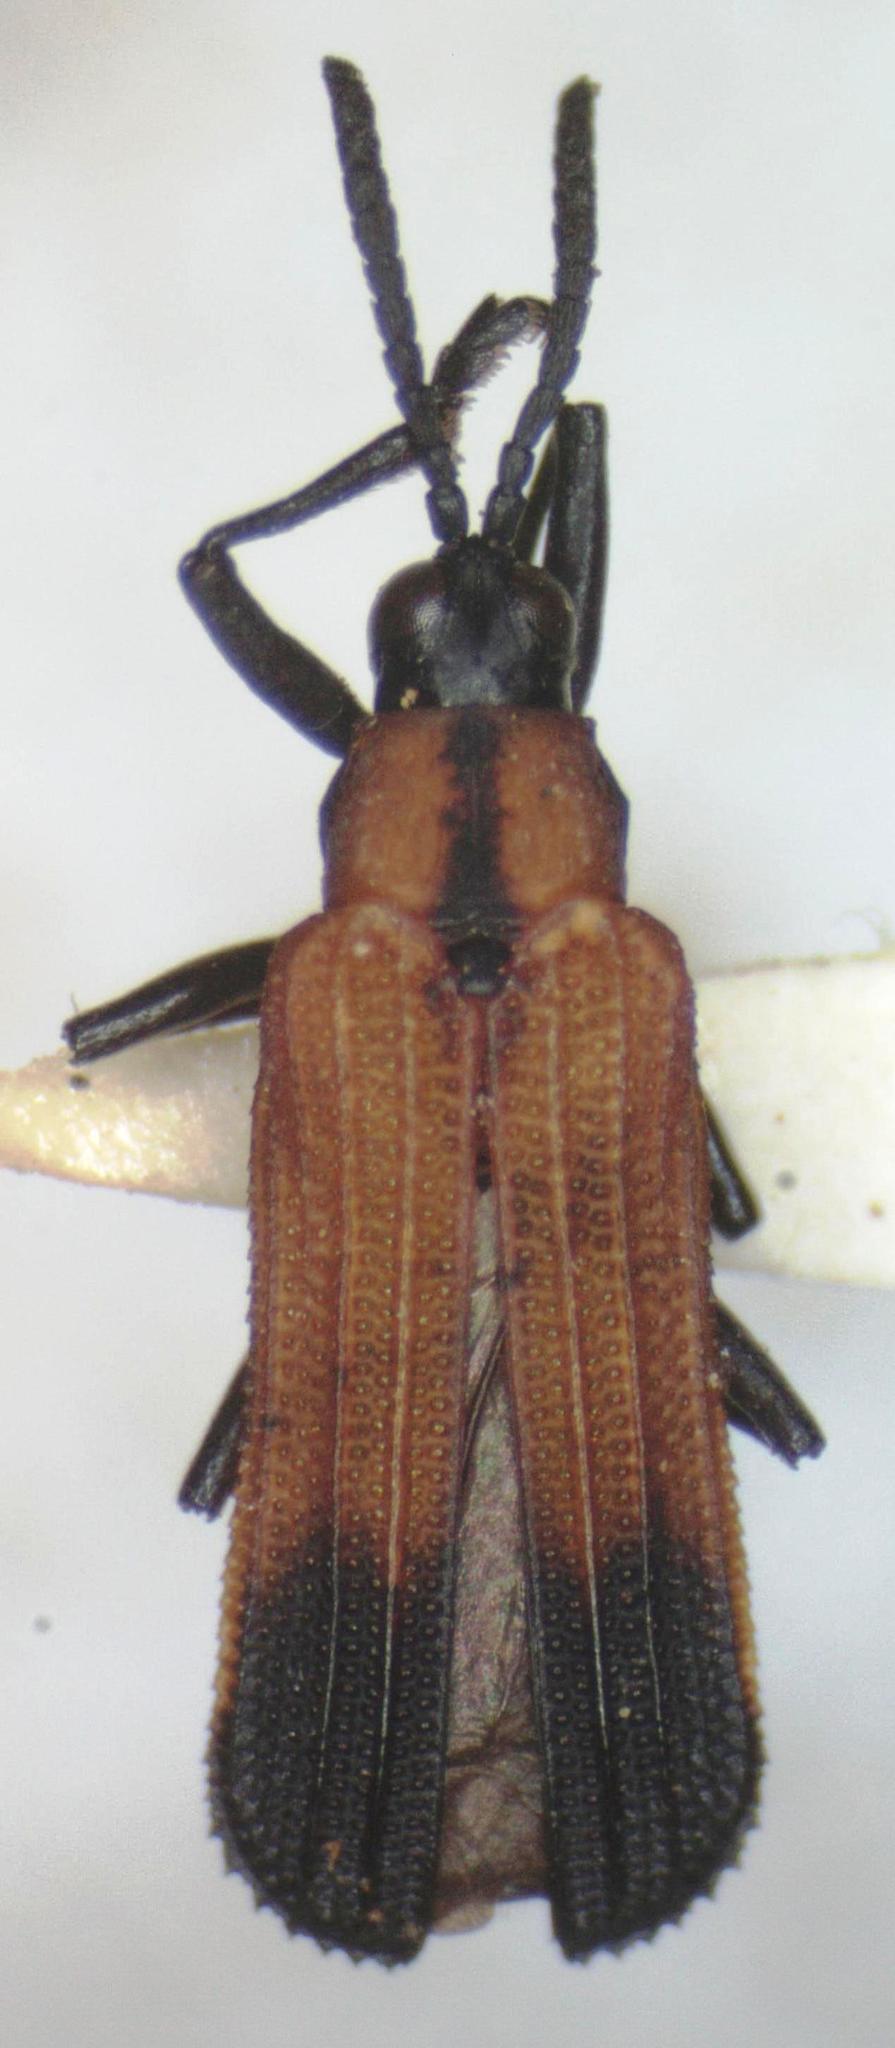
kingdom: Animalia
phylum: Arthropoda
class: Insecta
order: Coleoptera
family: Chrysomelidae
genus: Chalepus
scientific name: Chalepus angulosus
